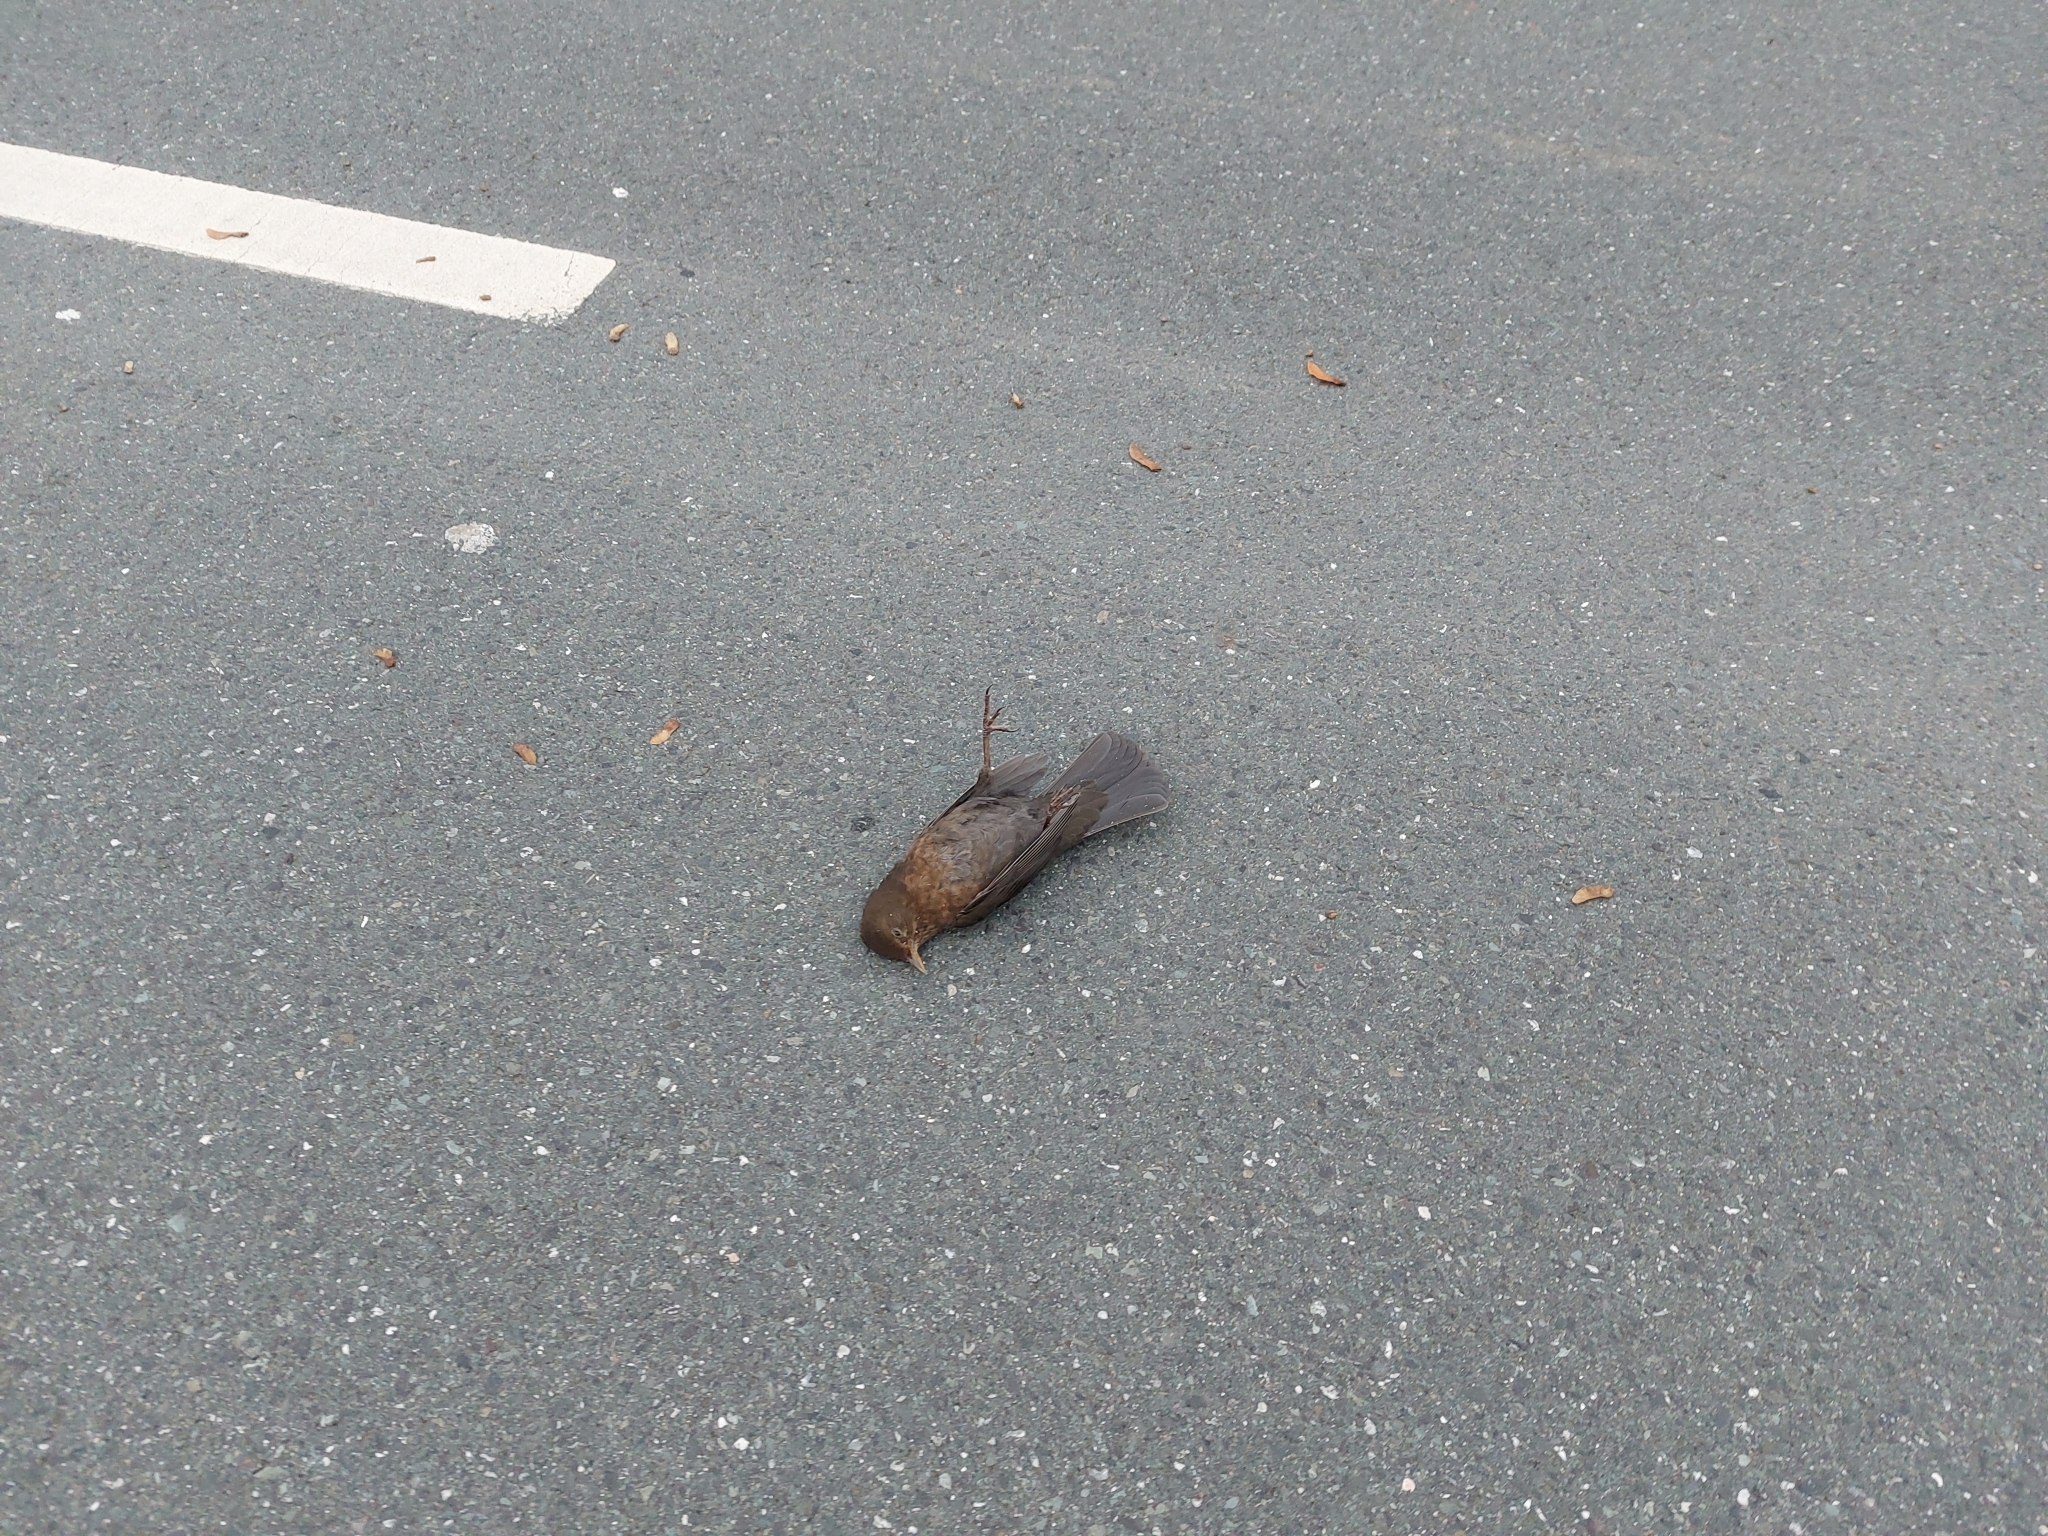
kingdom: Animalia
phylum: Chordata
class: Aves
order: Passeriformes
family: Turdidae
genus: Turdus
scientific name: Turdus merula
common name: Common blackbird
